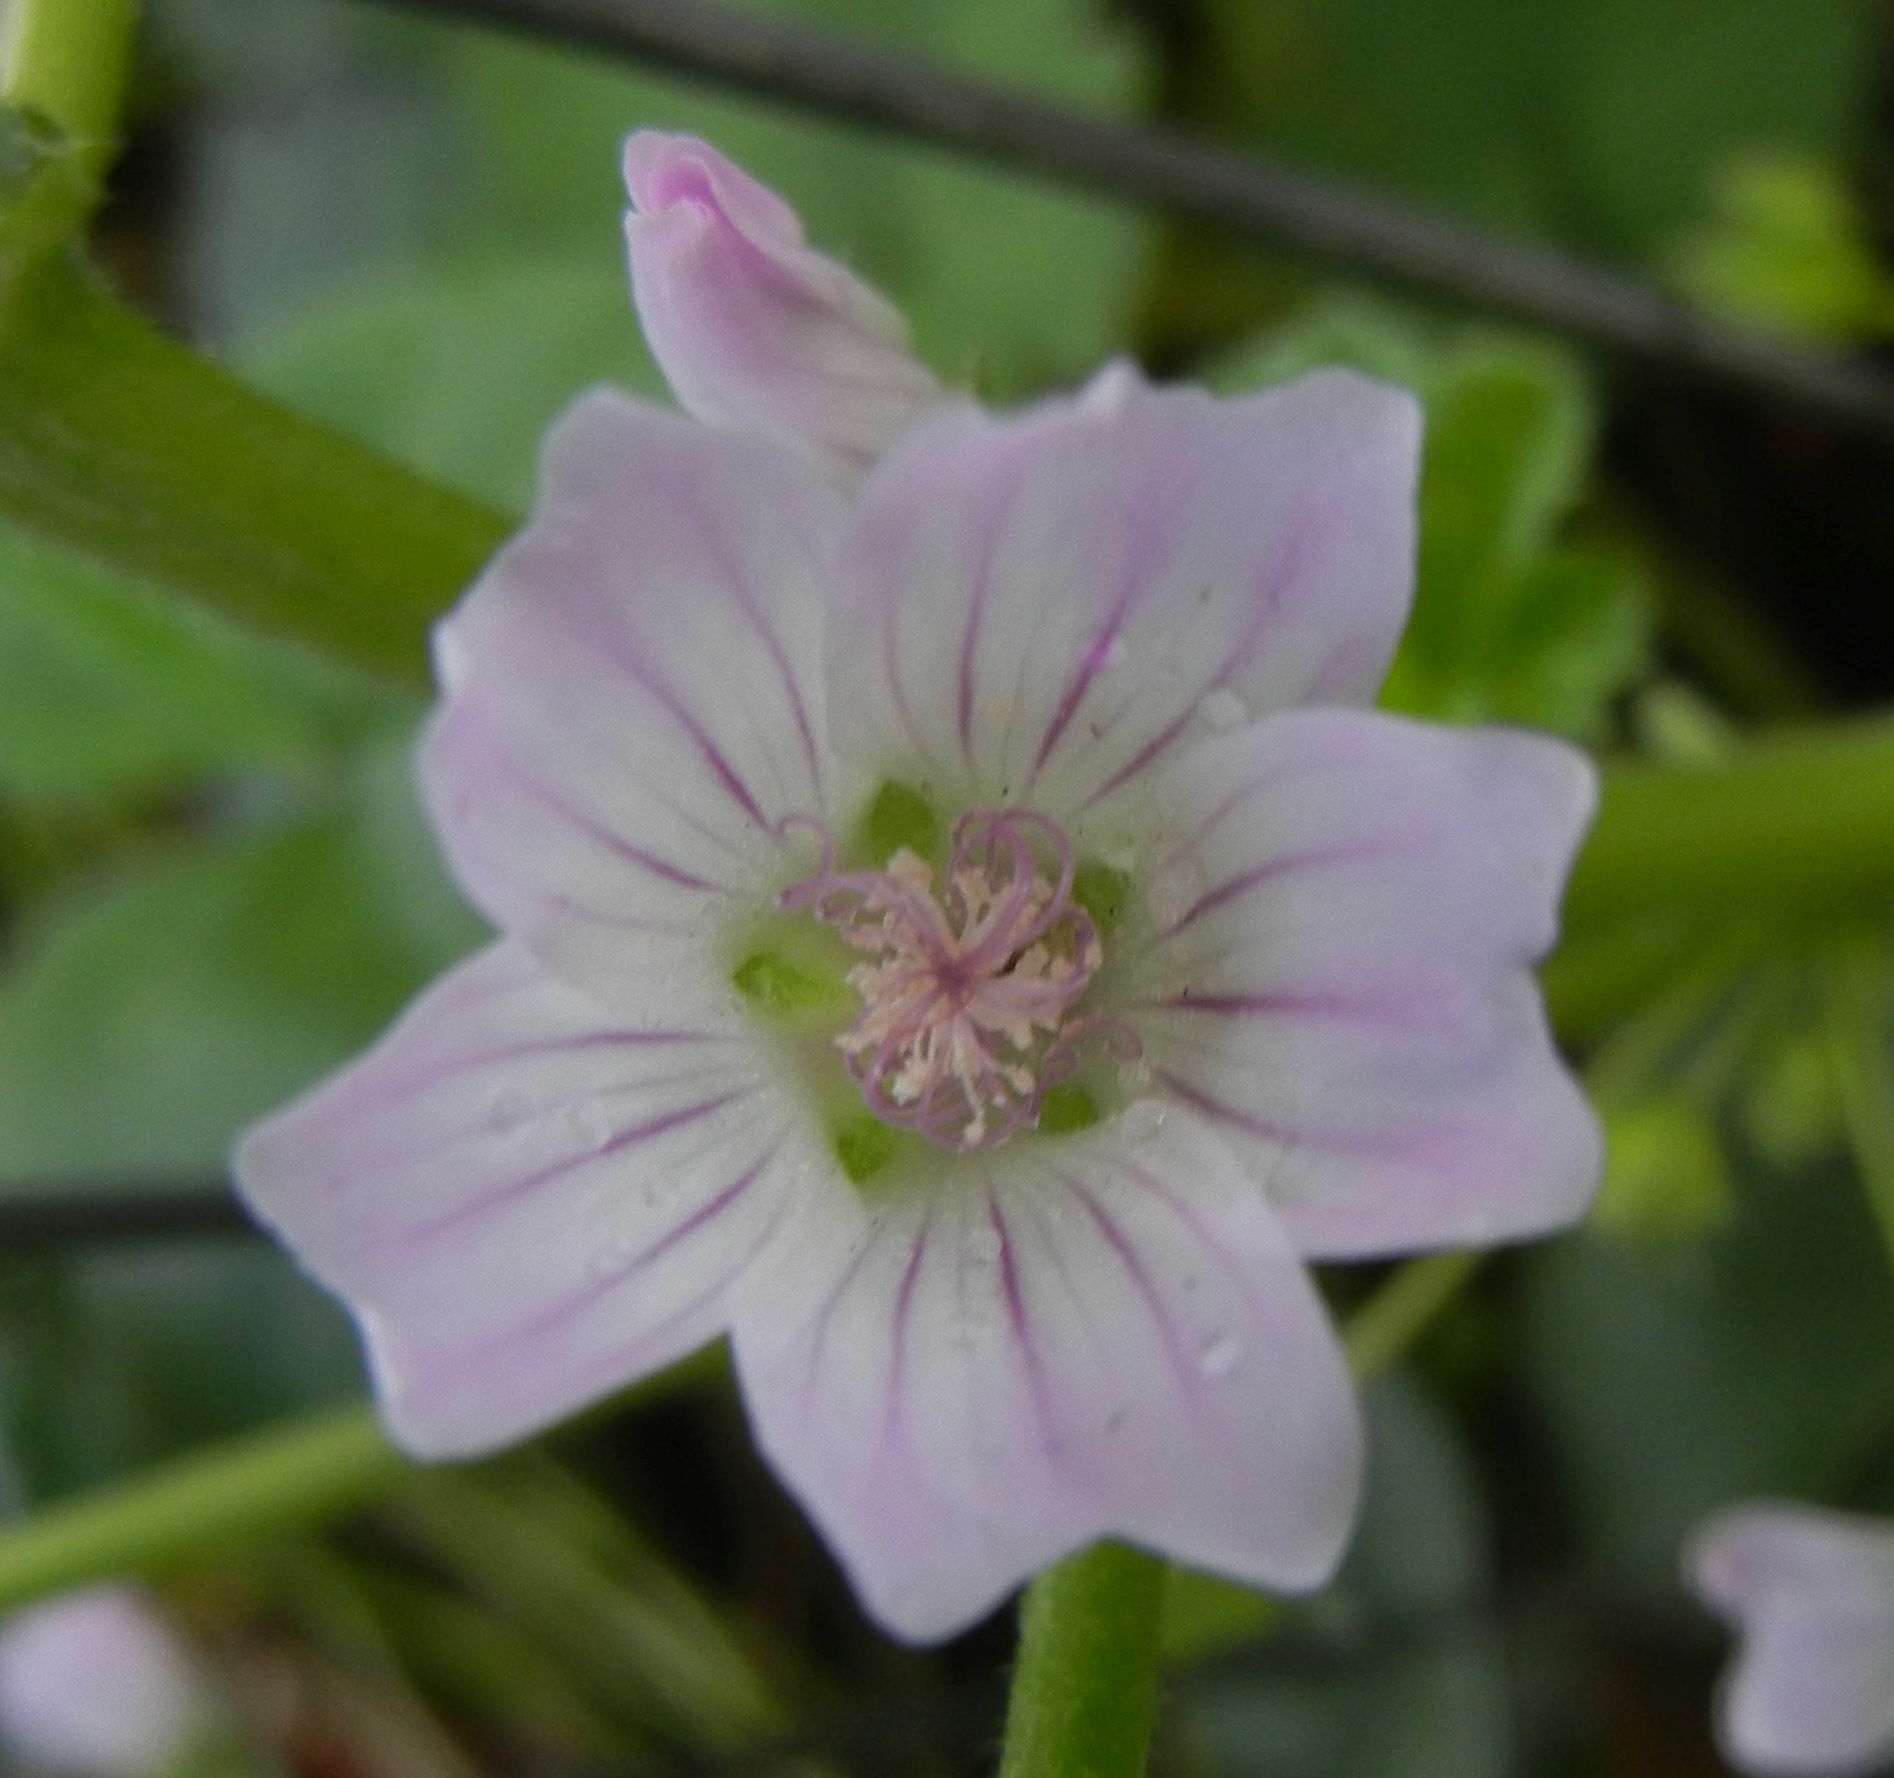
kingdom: Plantae
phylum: Tracheophyta
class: Magnoliopsida
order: Malvales
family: Malvaceae
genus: Malva
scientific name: Malva neglecta
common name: Common mallow
